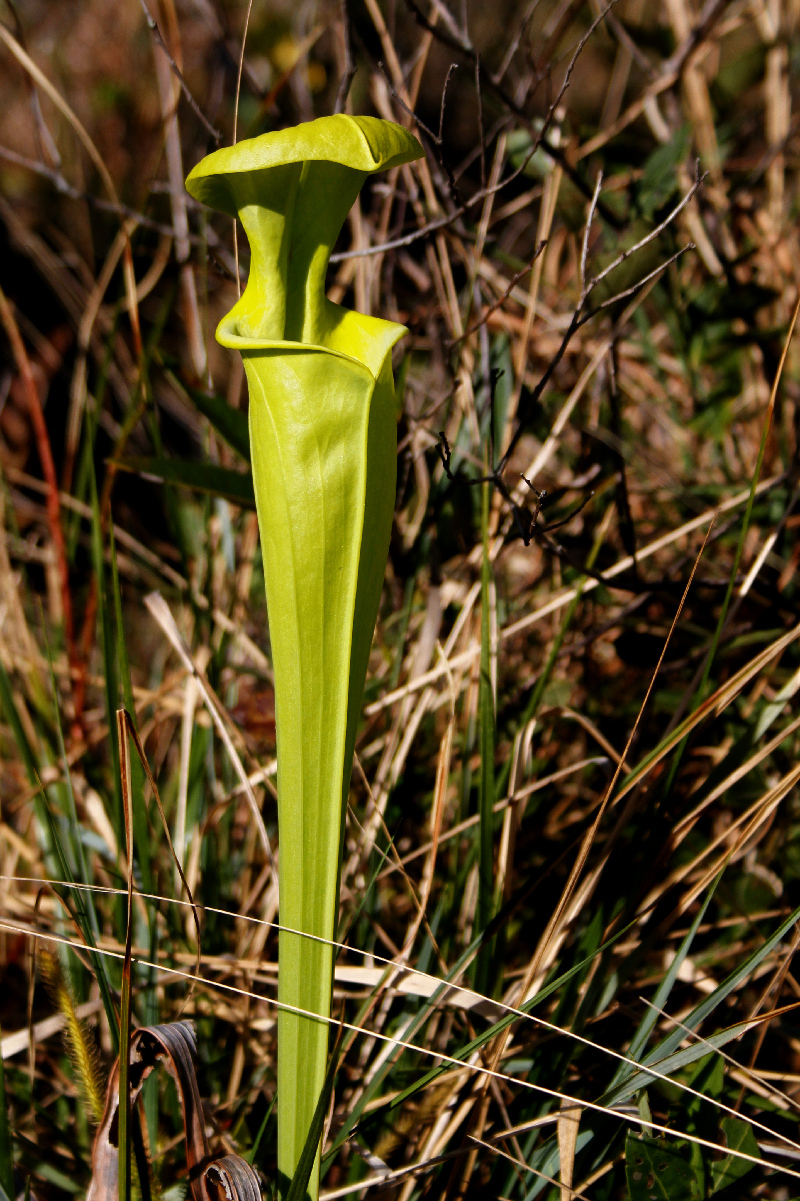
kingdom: Plantae
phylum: Tracheophyta
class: Magnoliopsida
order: Ericales
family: Sarraceniaceae
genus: Sarracenia
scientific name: Sarracenia flava
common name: Trumpets
